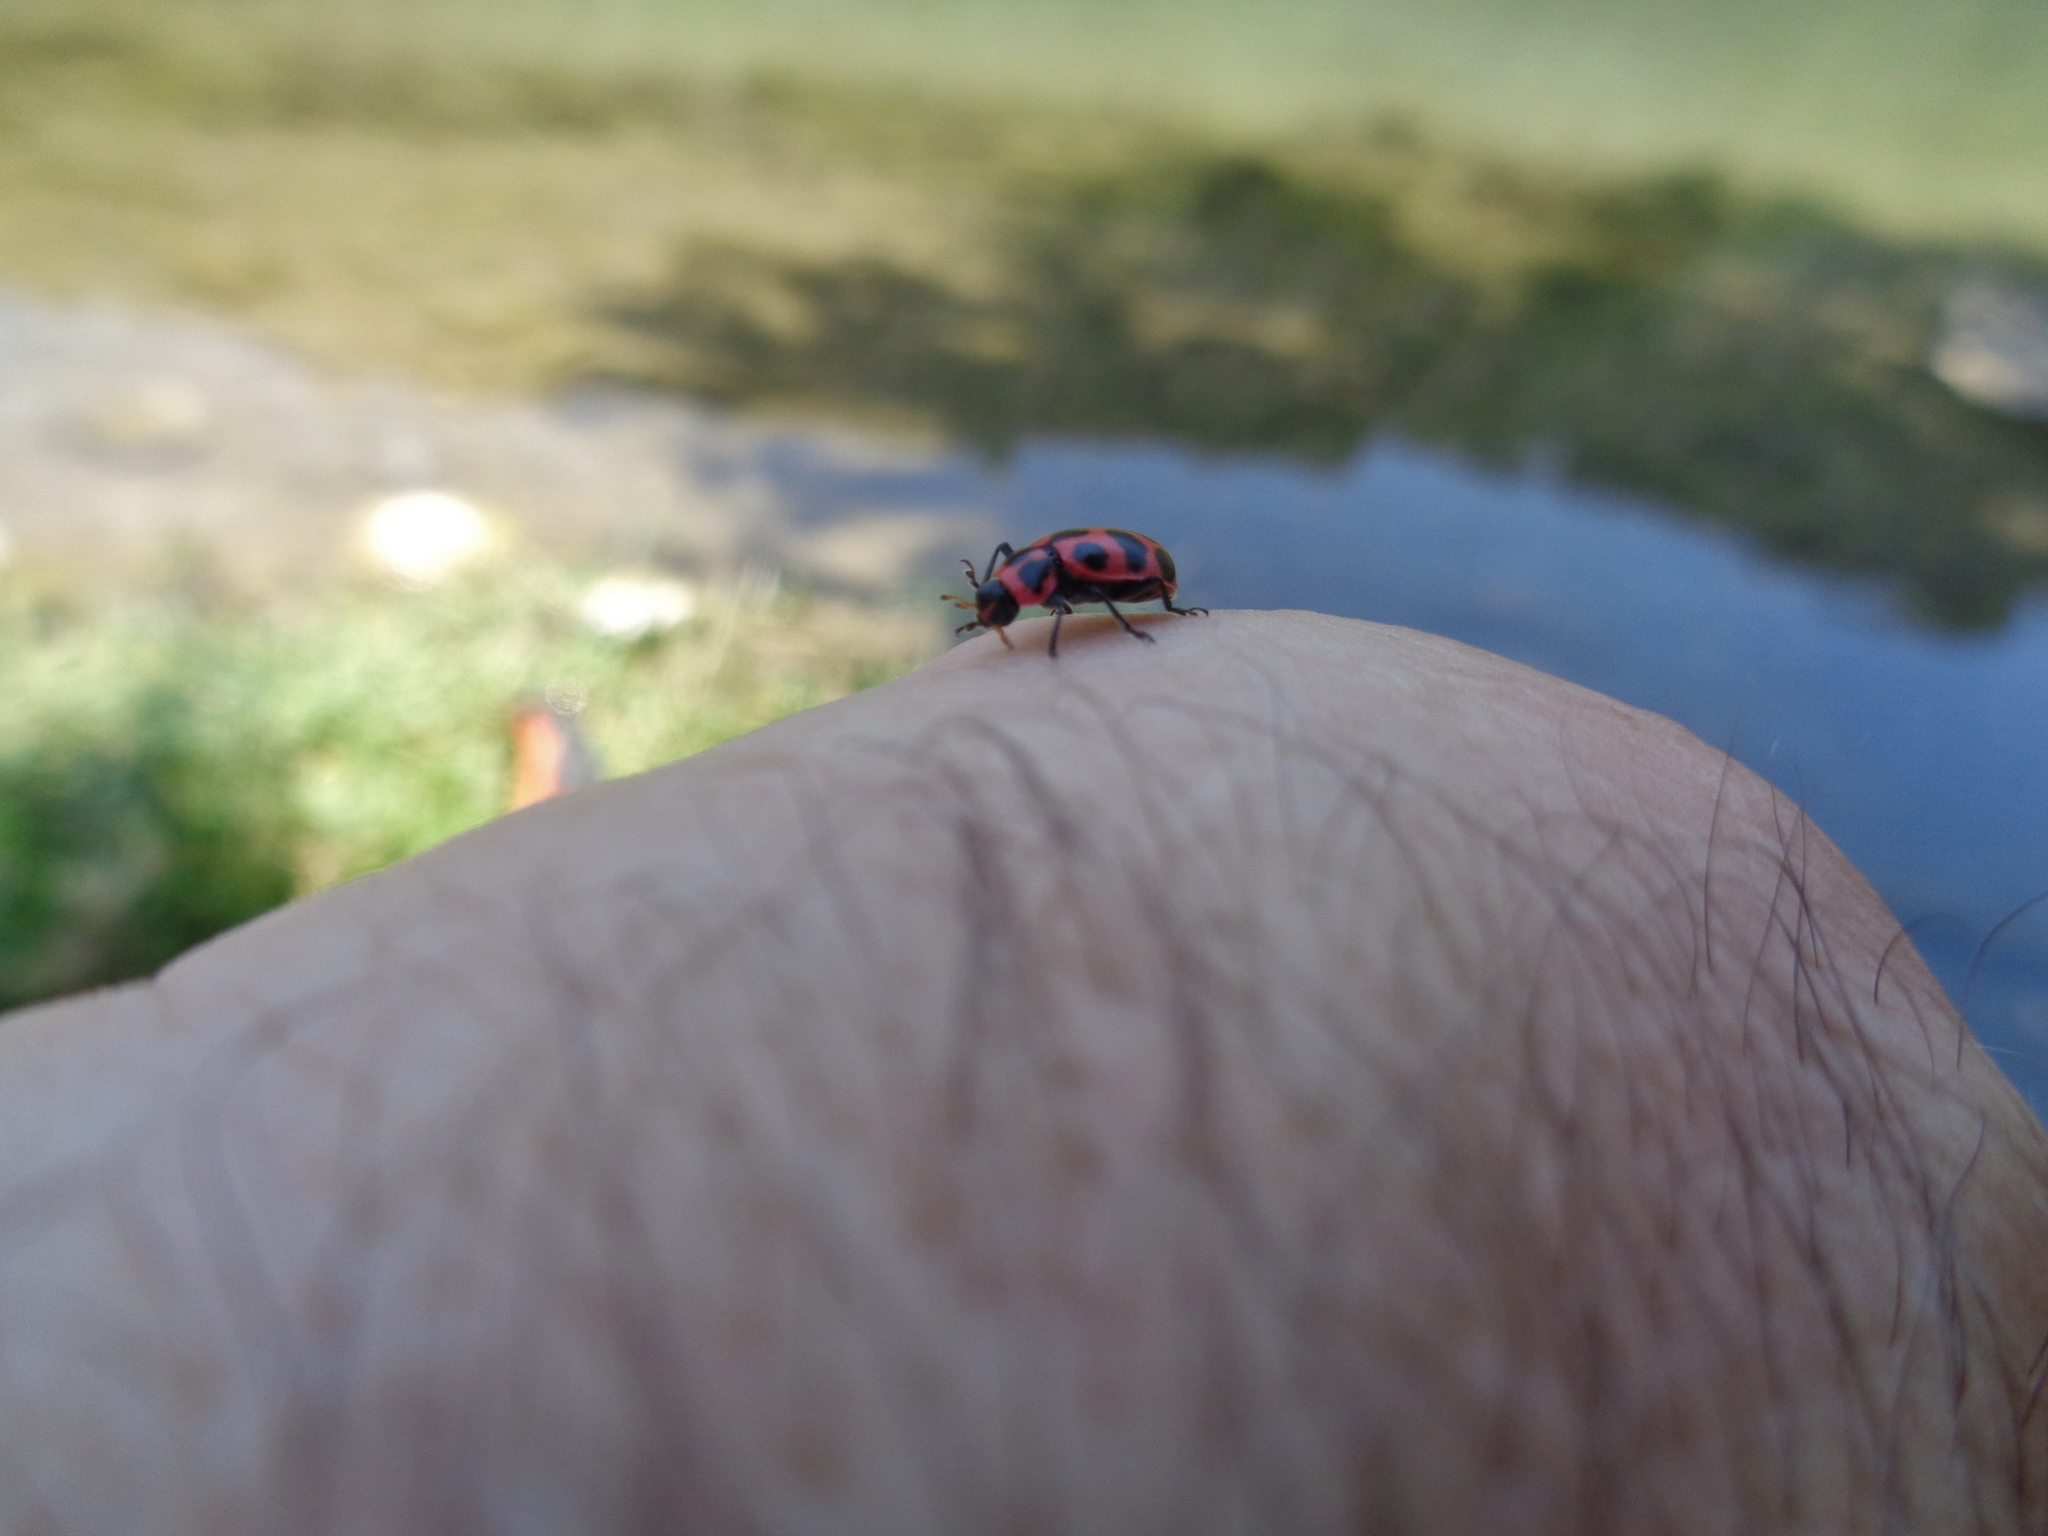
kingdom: Animalia
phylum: Arthropoda
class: Insecta
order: Coleoptera
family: Coccinellidae
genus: Coleomegilla
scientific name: Coleomegilla maculata
